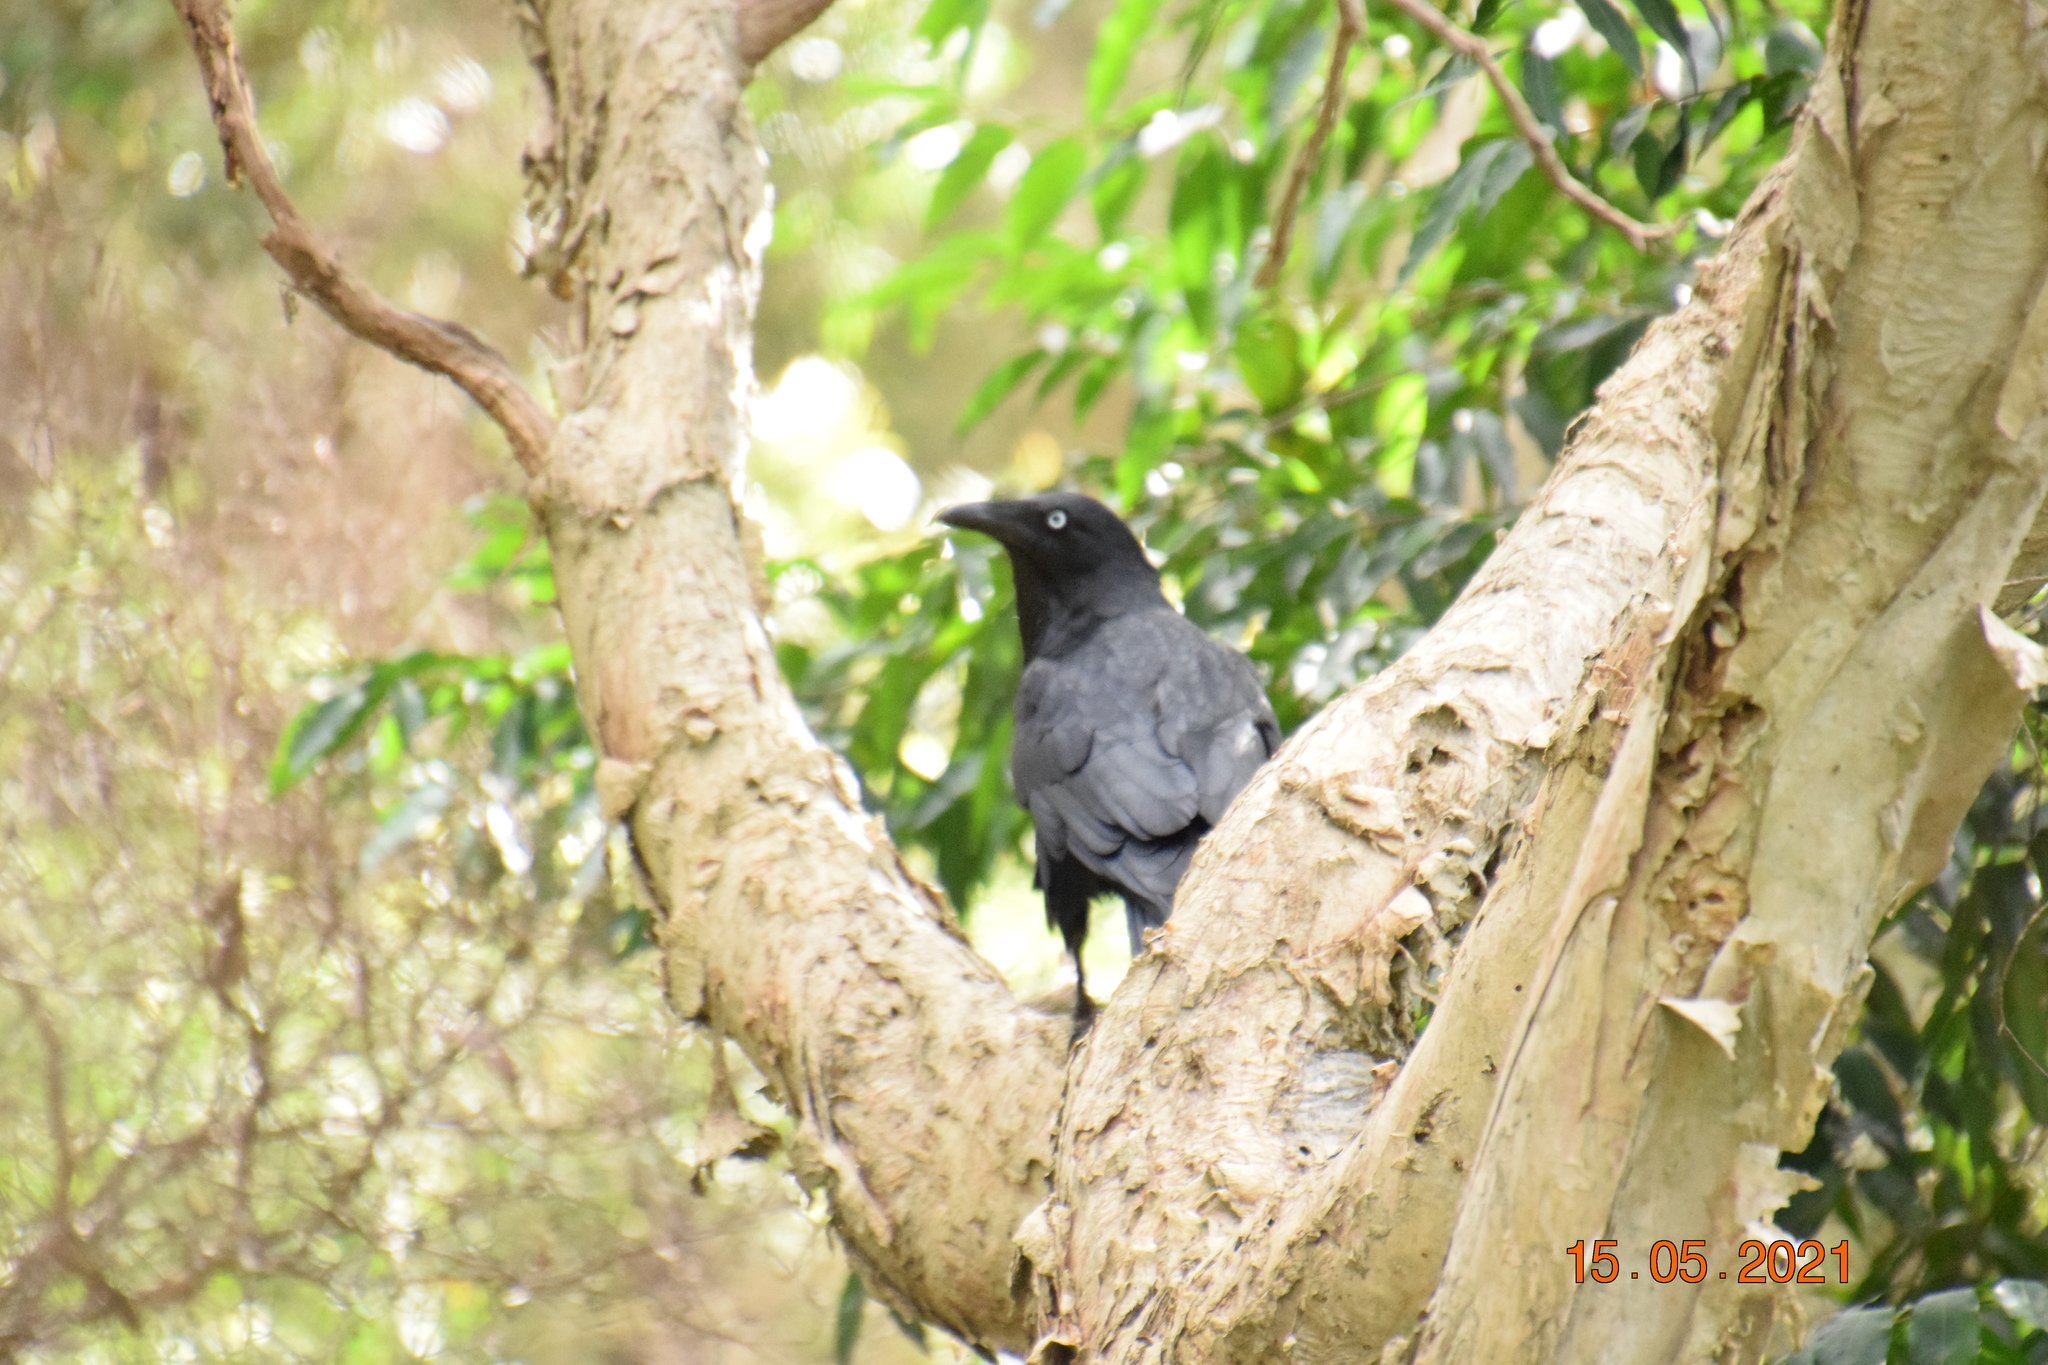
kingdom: Animalia
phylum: Chordata
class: Aves
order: Passeriformes
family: Corvidae
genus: Corvus
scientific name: Corvus coronoides
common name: Australian raven
